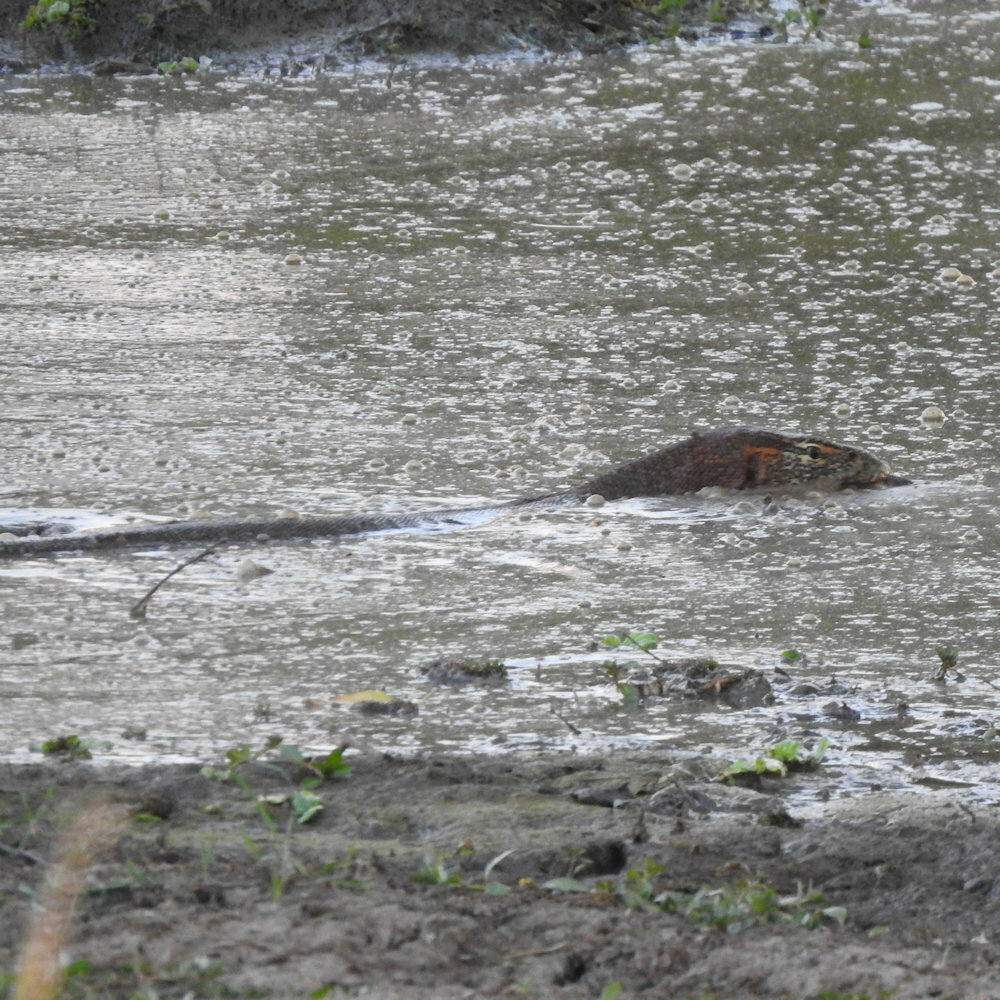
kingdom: Animalia
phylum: Chordata
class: Squamata
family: Varanidae
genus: Varanus
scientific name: Varanus niloticus
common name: Nile monitor
